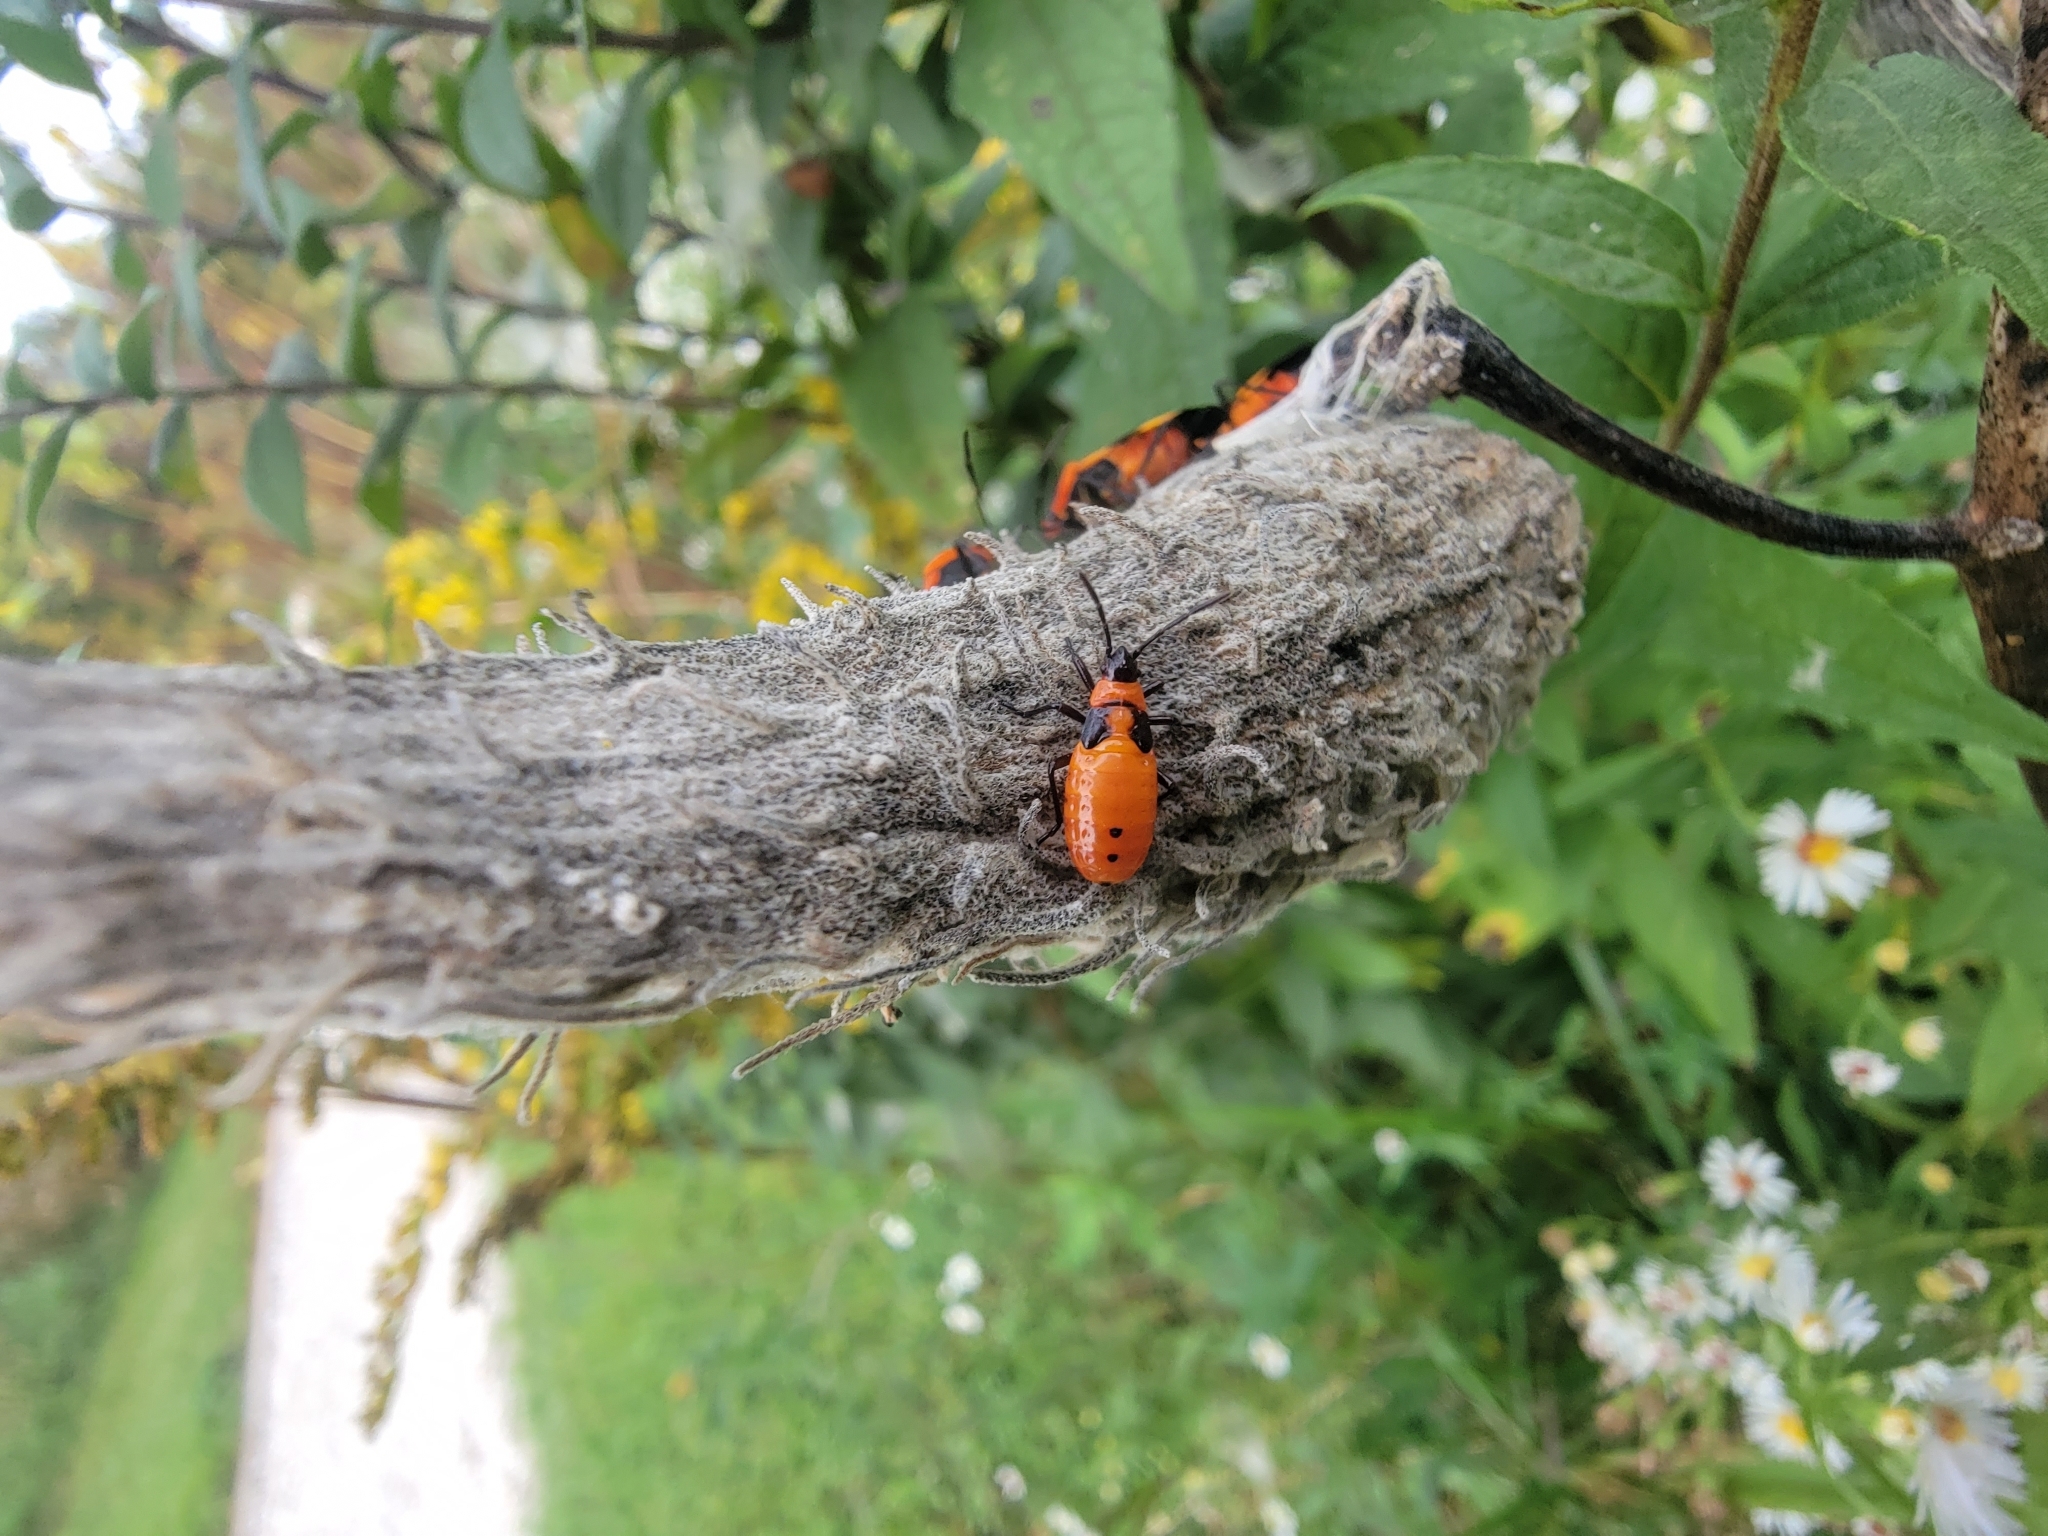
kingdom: Animalia
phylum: Arthropoda
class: Insecta
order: Hemiptera
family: Lygaeidae
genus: Oncopeltus
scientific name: Oncopeltus fasciatus
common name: Large milkweed bug
